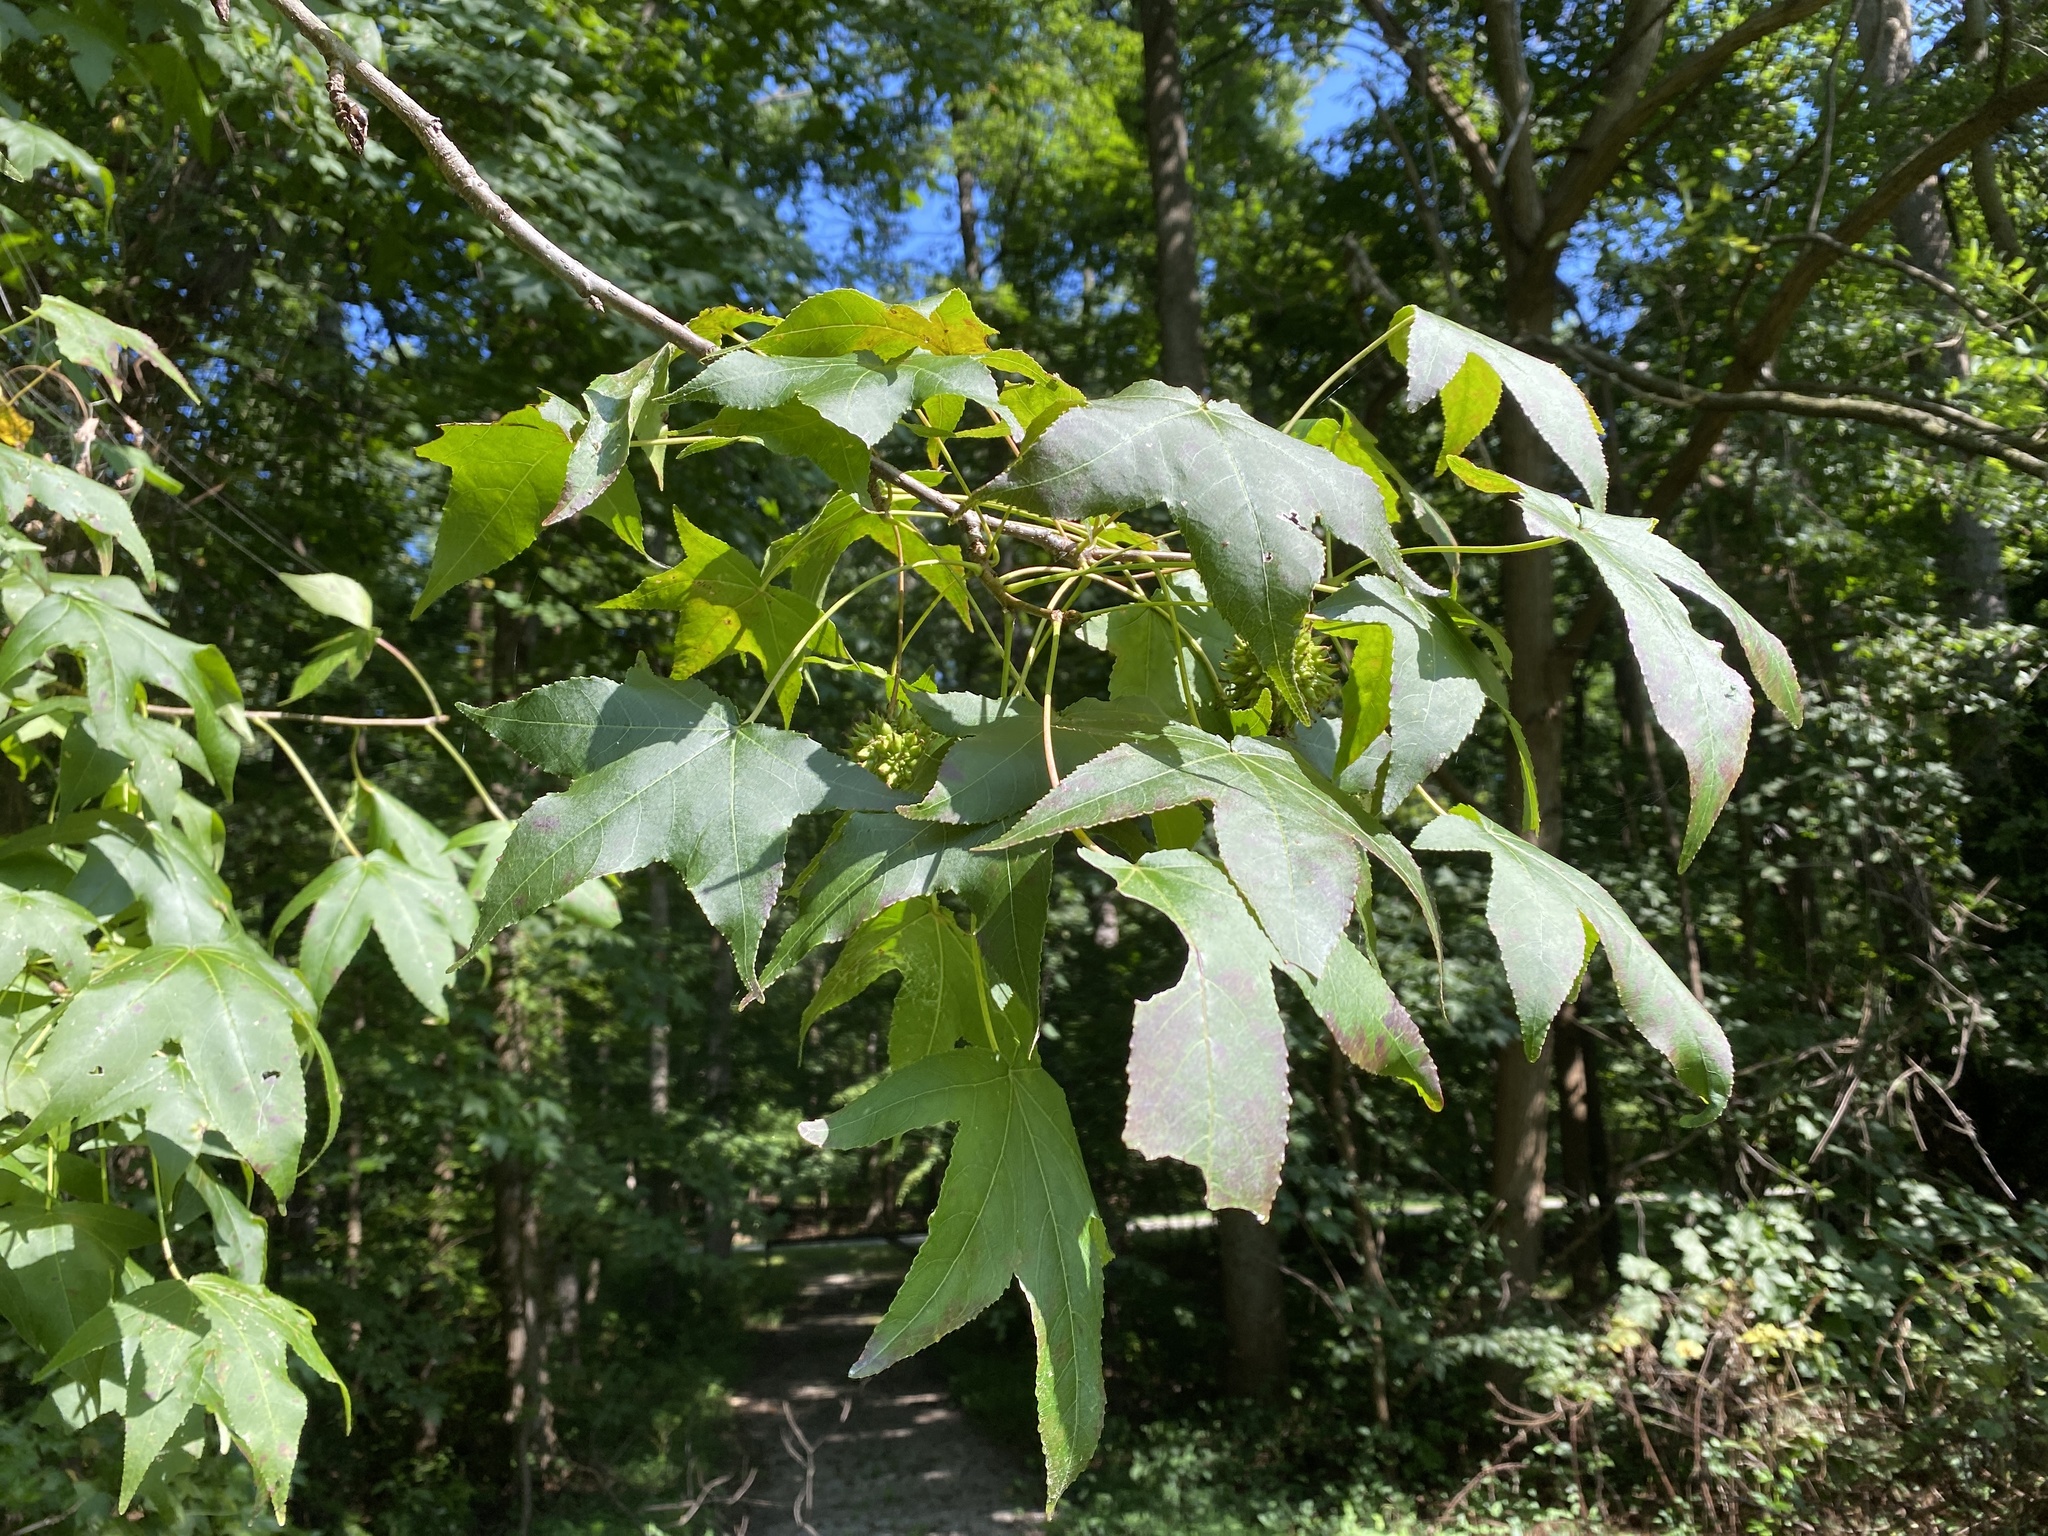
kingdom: Plantae
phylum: Tracheophyta
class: Magnoliopsida
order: Saxifragales
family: Altingiaceae
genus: Liquidambar
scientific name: Liquidambar styraciflua
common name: Sweet gum
